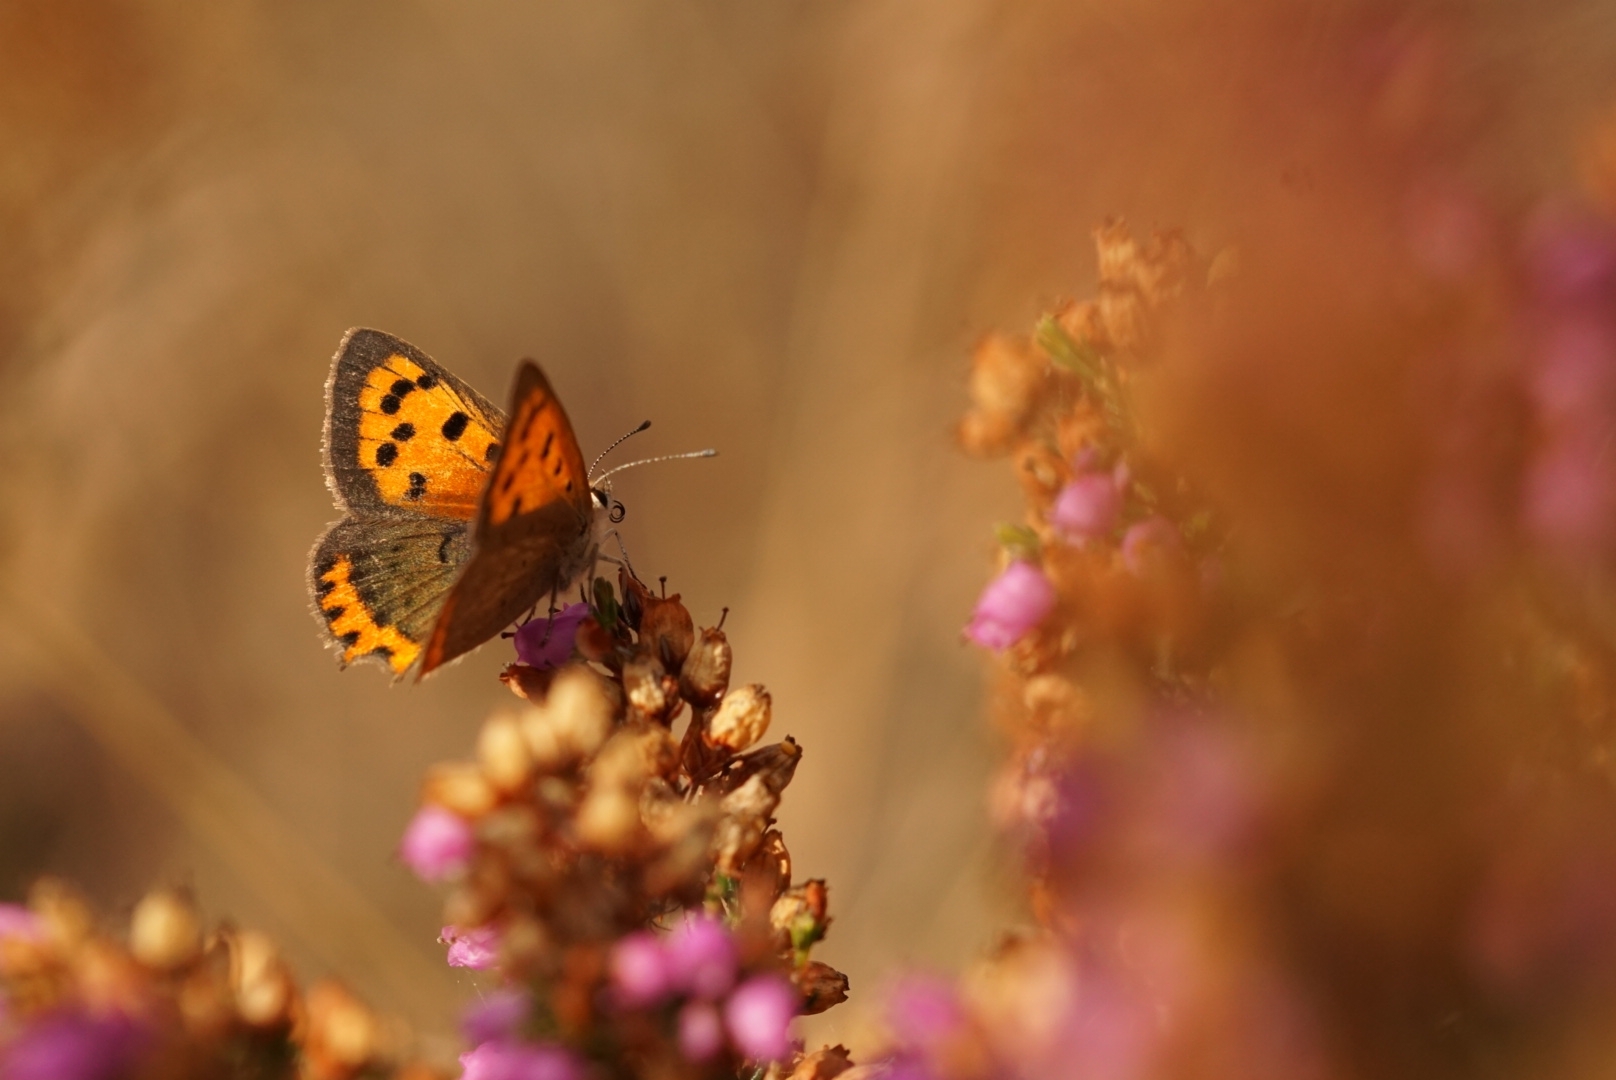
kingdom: Animalia
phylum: Arthropoda
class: Insecta
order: Lepidoptera
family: Lycaenidae
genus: Lycaena
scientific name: Lycaena phlaeas
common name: Small copper
